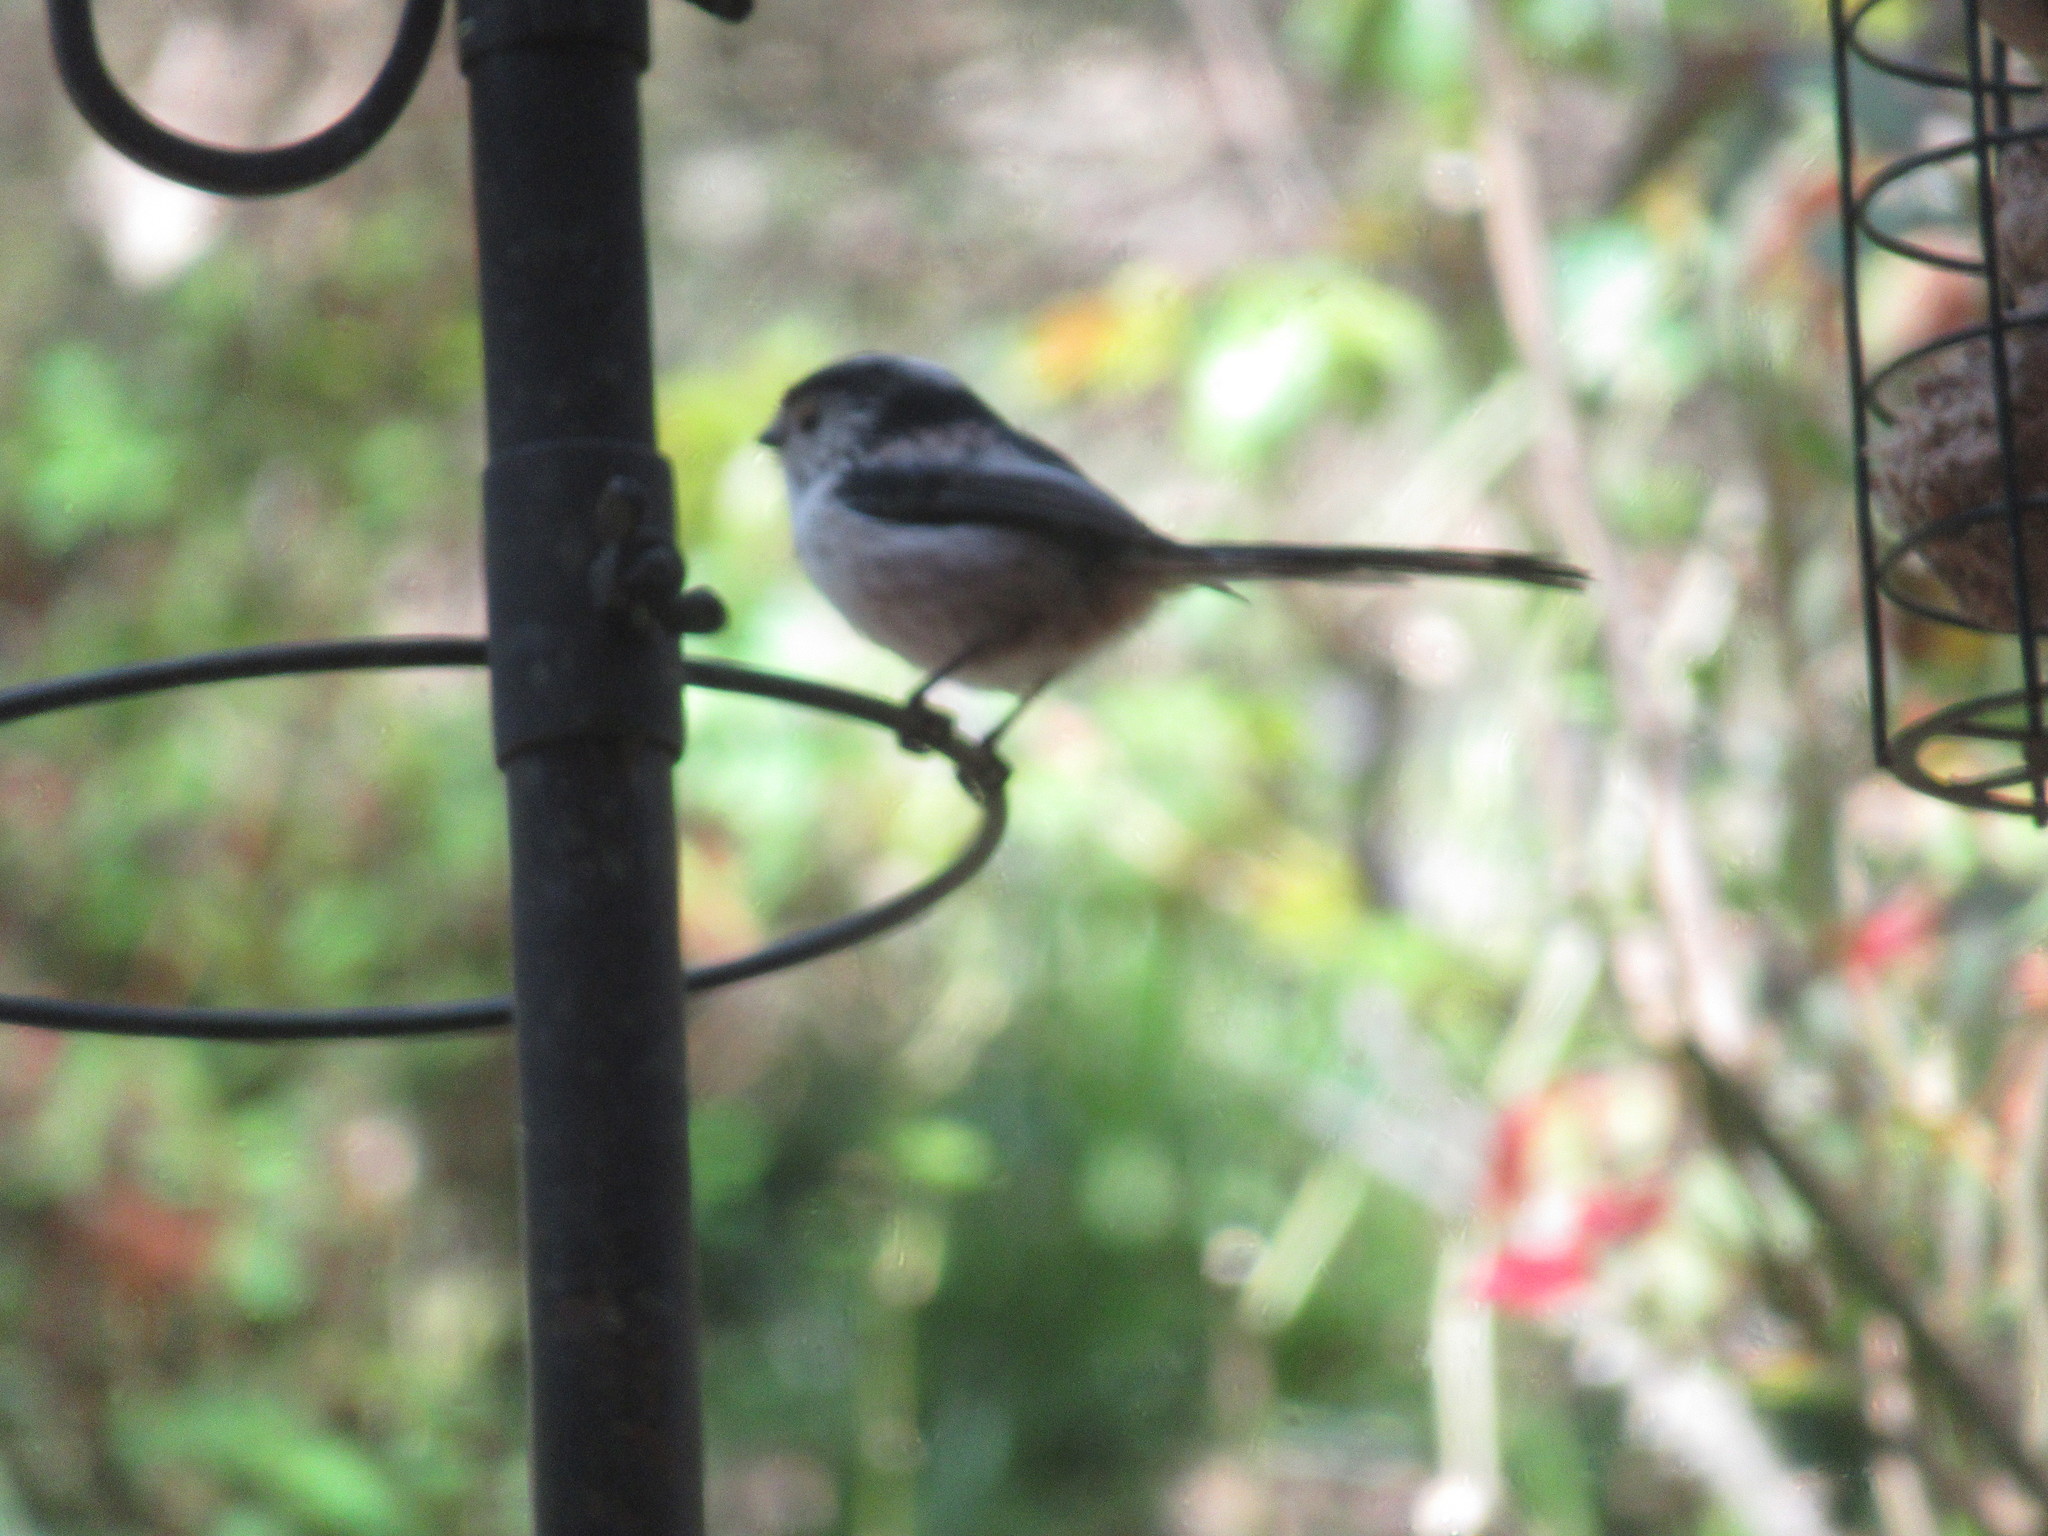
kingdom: Animalia
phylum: Chordata
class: Aves
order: Passeriformes
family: Aegithalidae
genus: Aegithalos
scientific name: Aegithalos caudatus
